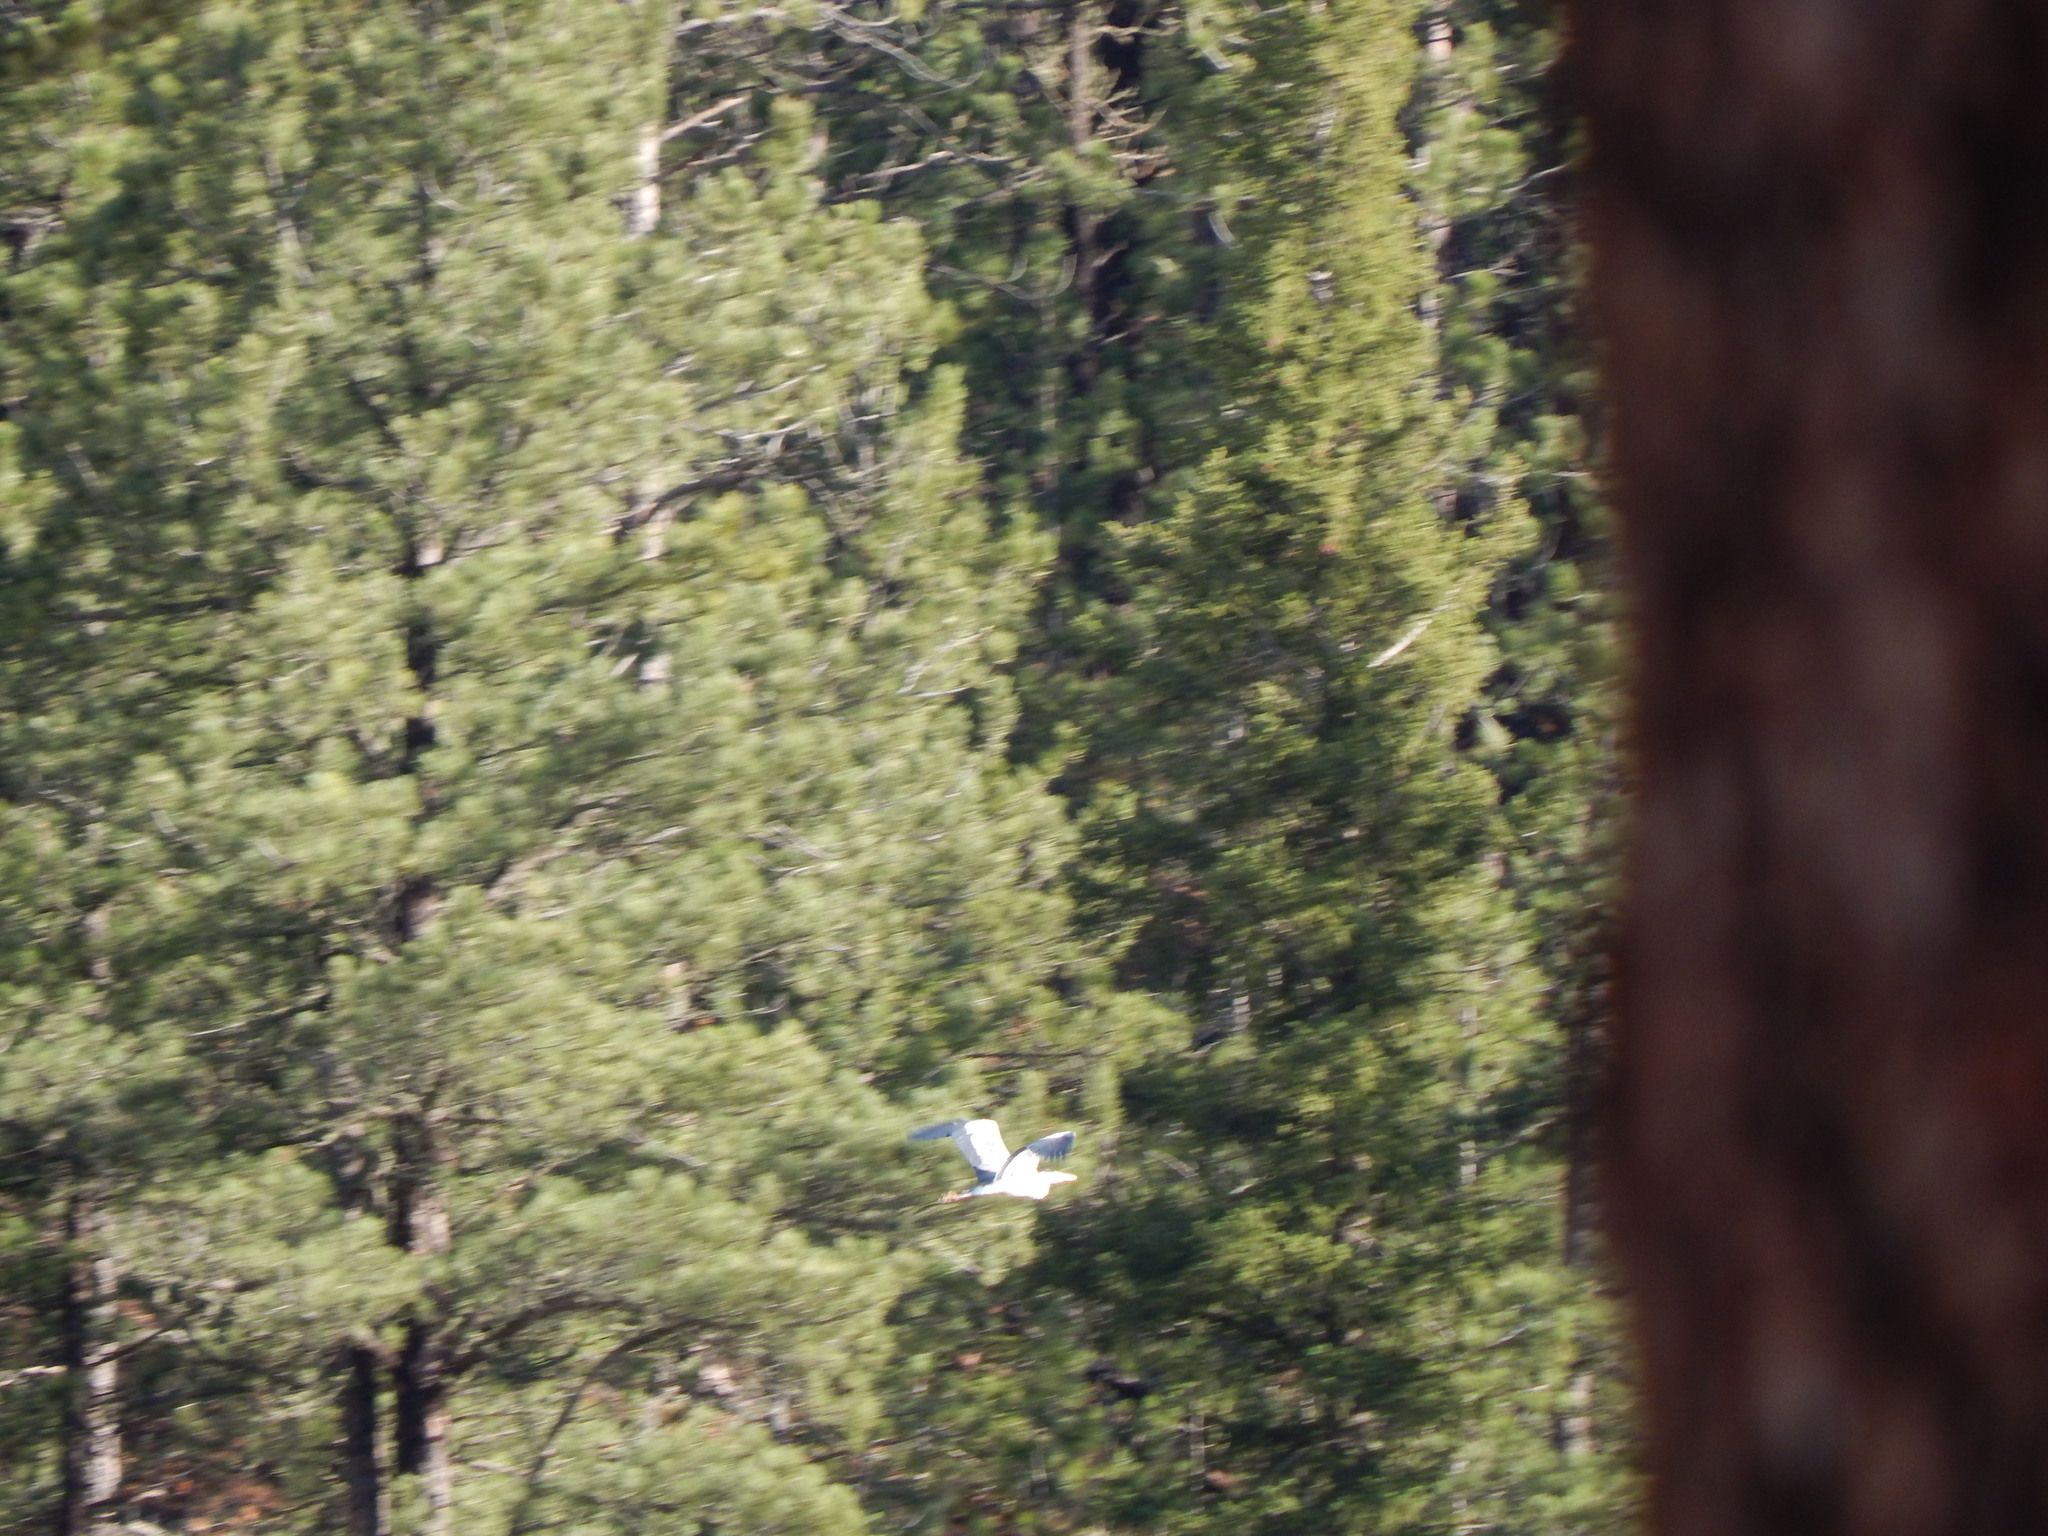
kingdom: Animalia
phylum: Chordata
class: Aves
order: Pelecaniformes
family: Ardeidae
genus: Ardea
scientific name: Ardea herodias
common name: Great blue heron
